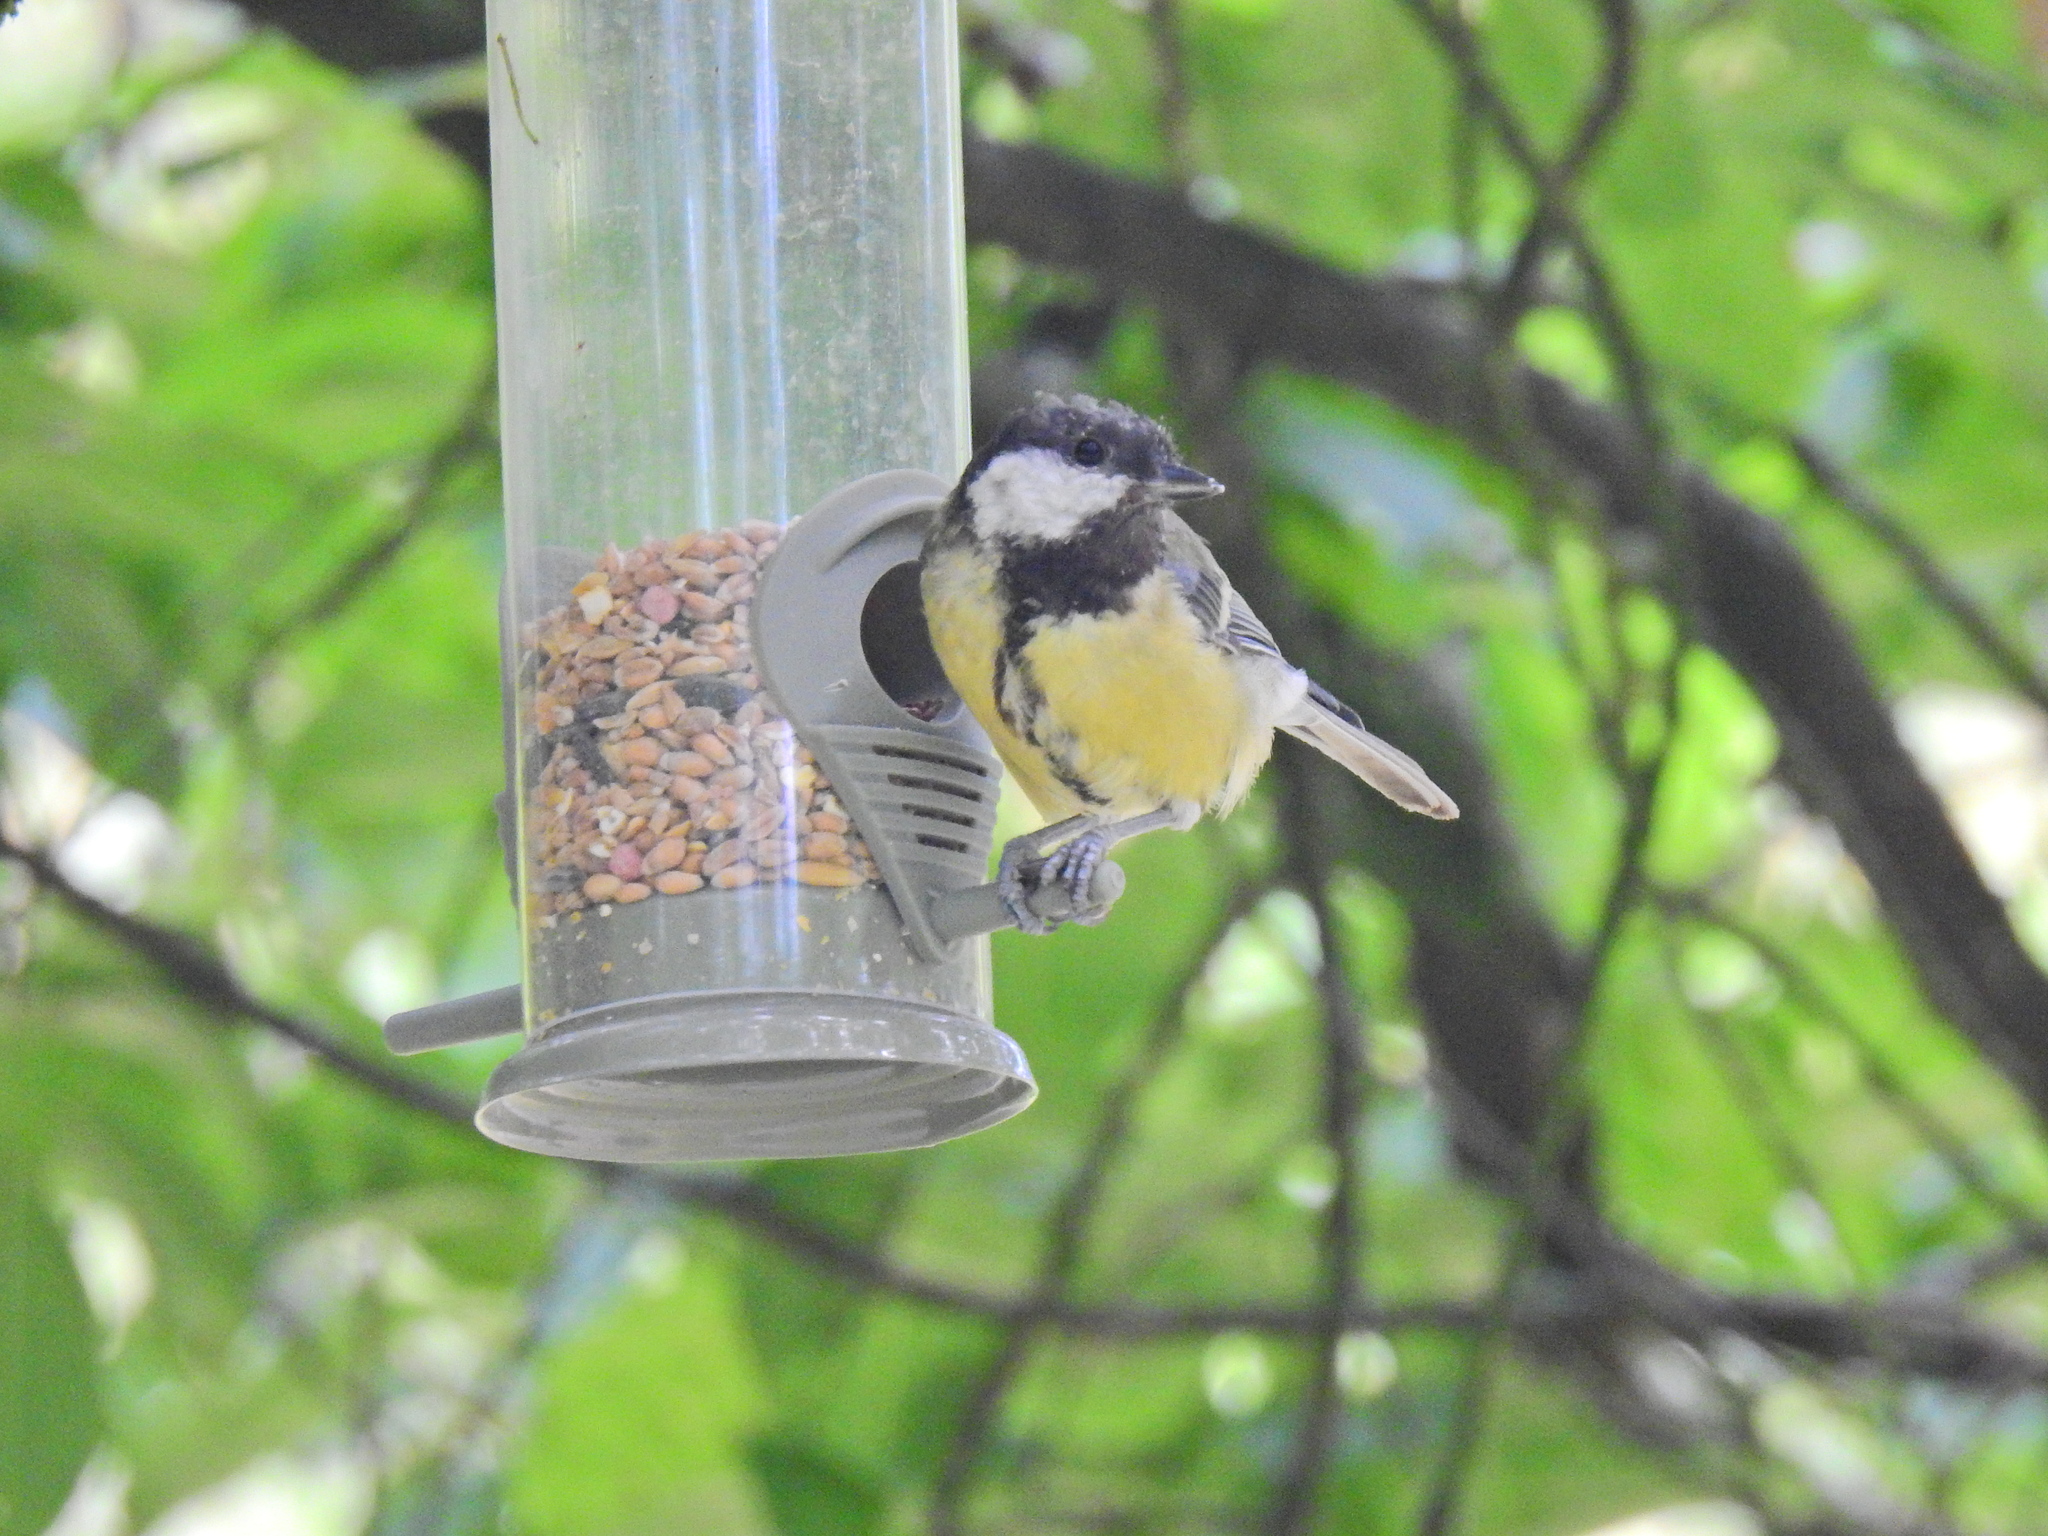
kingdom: Animalia
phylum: Chordata
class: Aves
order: Passeriformes
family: Paridae
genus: Parus
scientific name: Parus major
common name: Great tit
